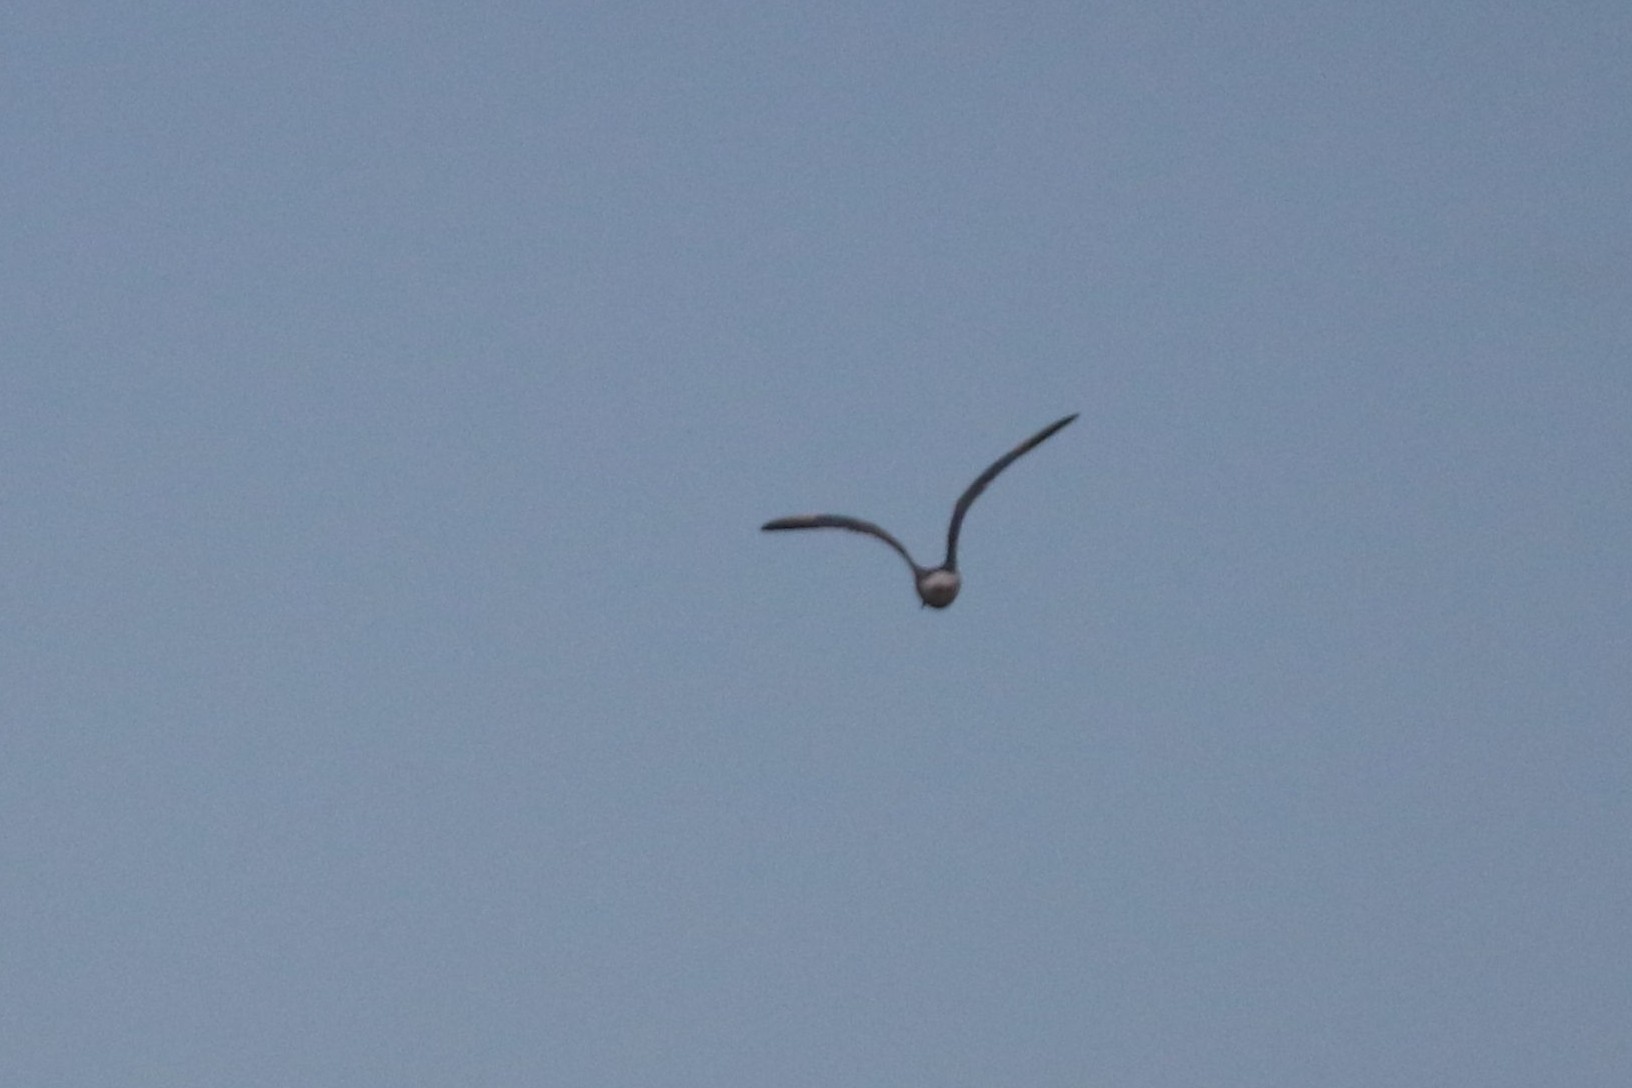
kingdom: Animalia
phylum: Chordata
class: Aves
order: Charadriiformes
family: Laridae
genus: Sterna
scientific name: Sterna hirundo
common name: Common tern
